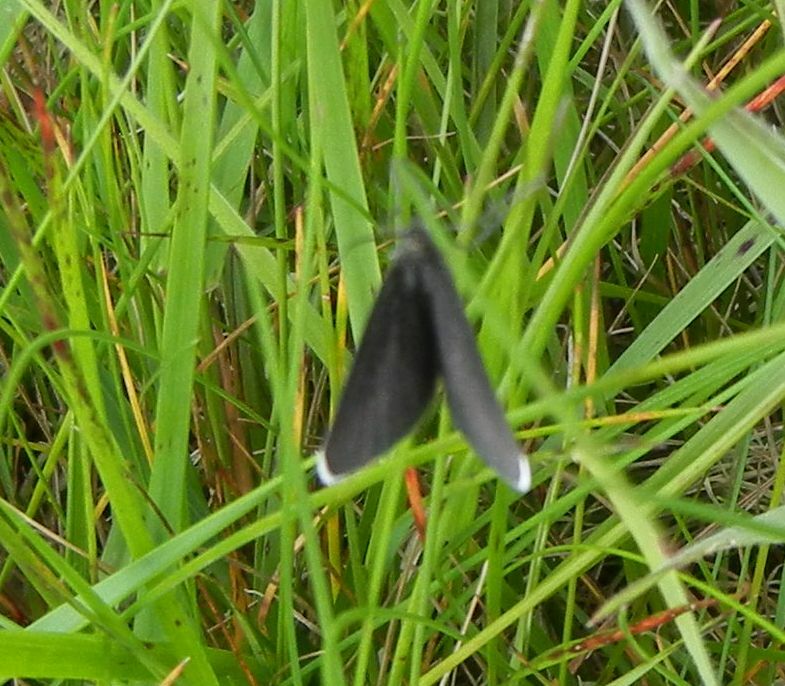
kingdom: Animalia
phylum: Arthropoda
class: Insecta
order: Lepidoptera
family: Geometridae
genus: Odezia
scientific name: Odezia atrata
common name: Chimney sweeper
